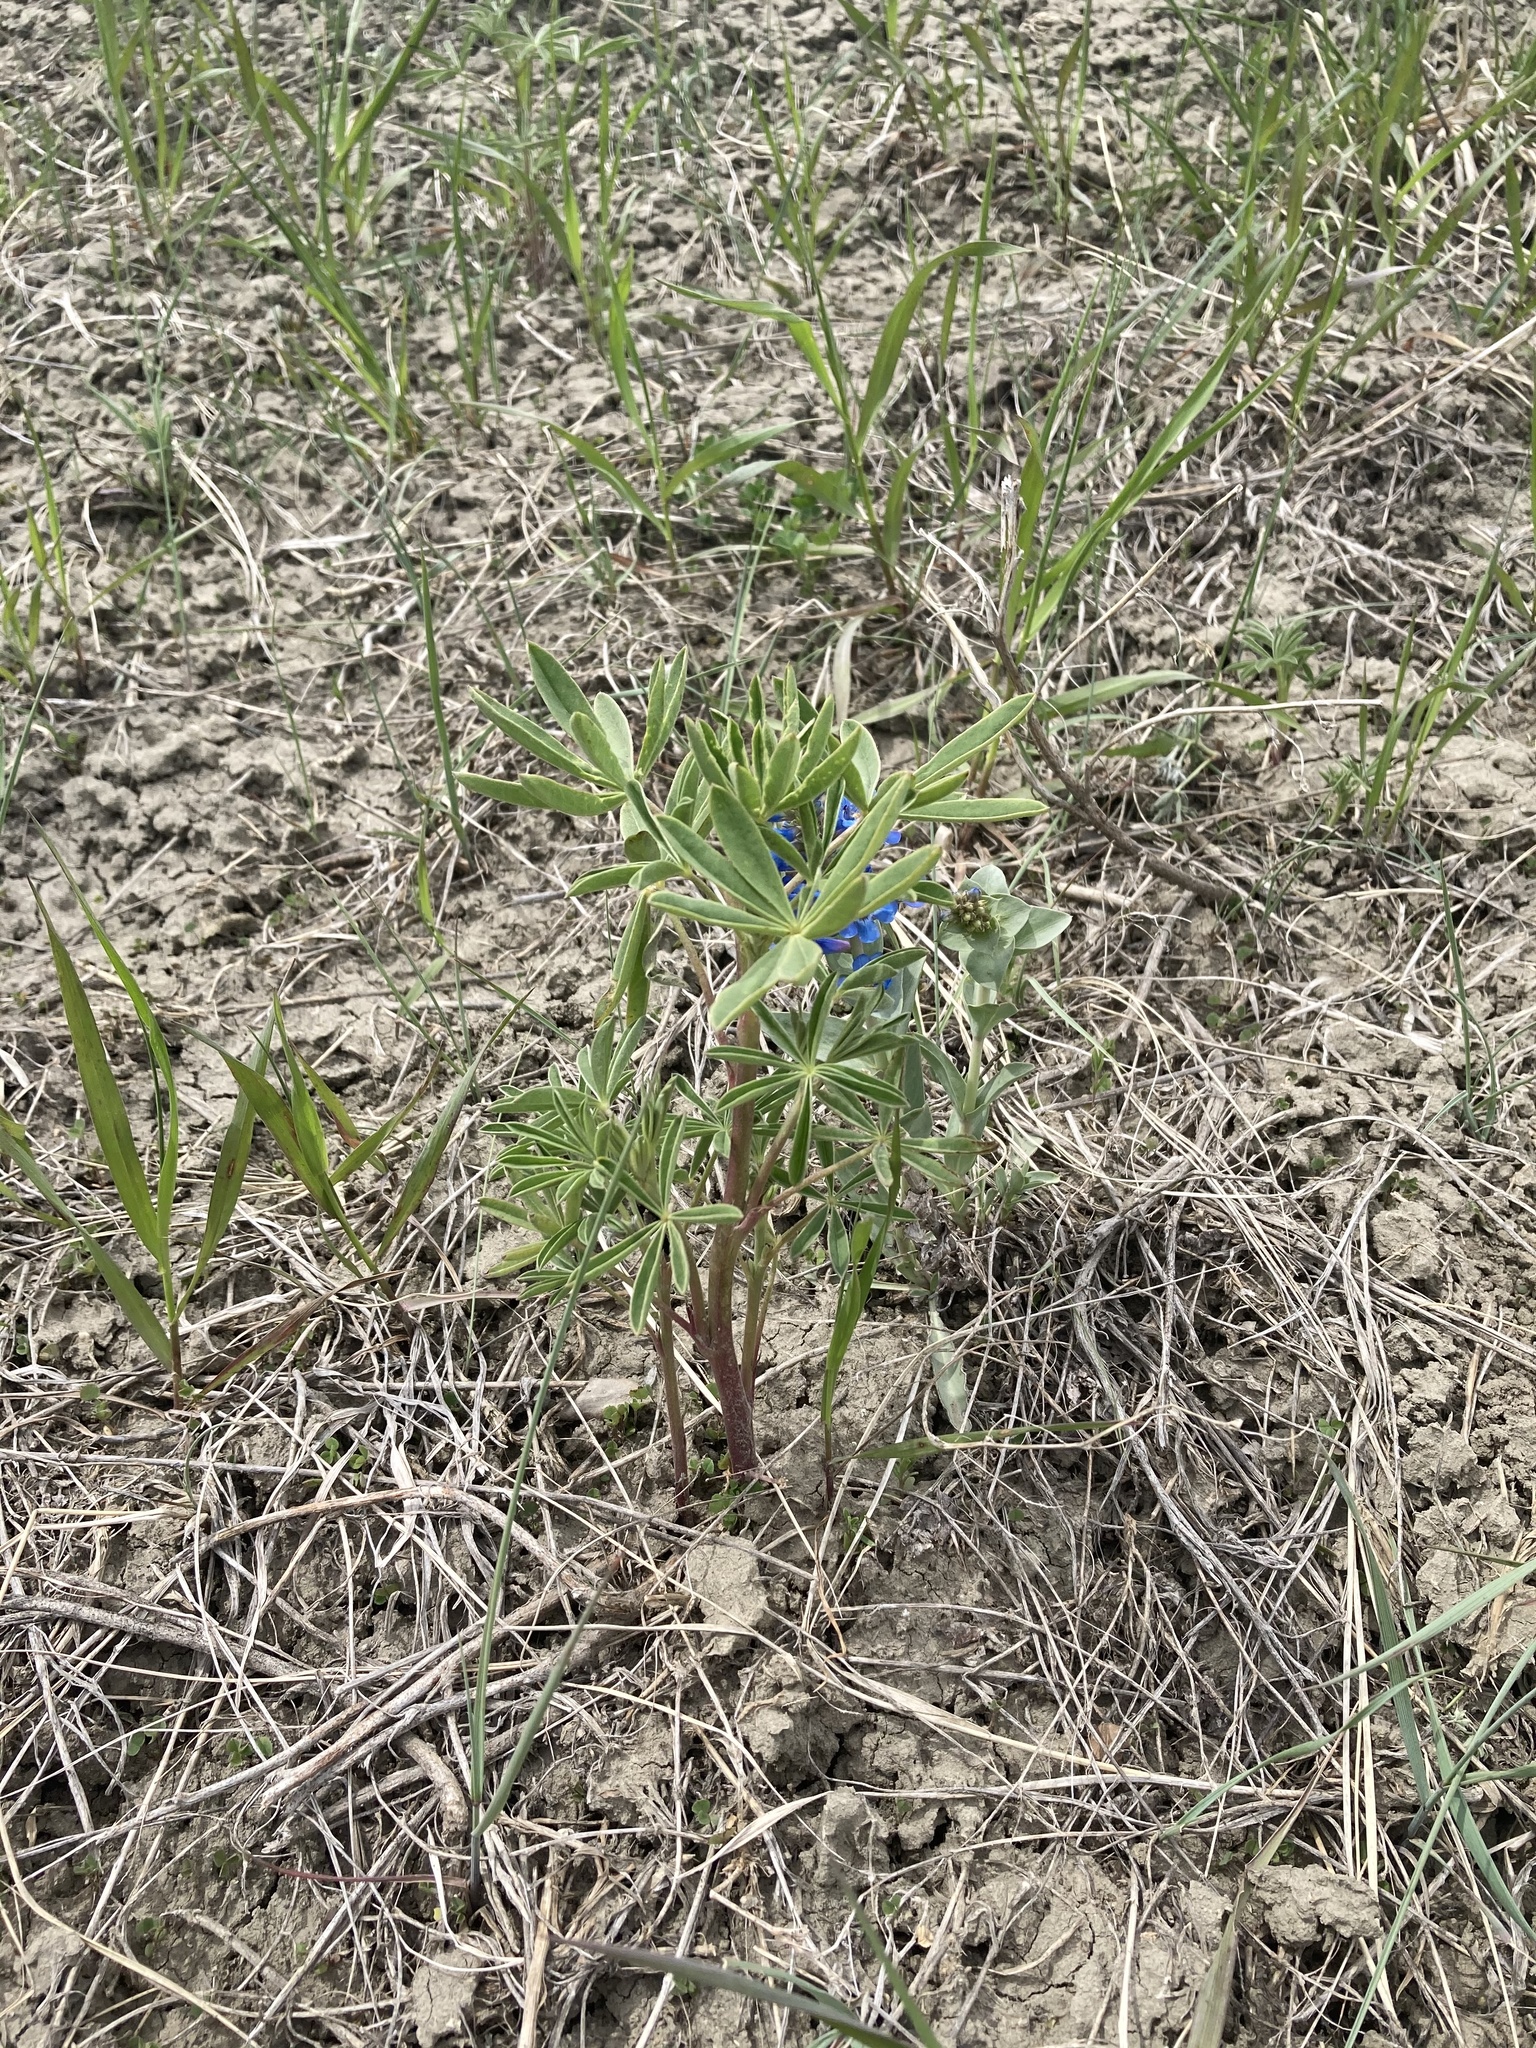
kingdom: Plantae
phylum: Tracheophyta
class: Magnoliopsida
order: Fabales
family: Fabaceae
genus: Lupinus
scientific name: Lupinus argenteus
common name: Silvery lupine
